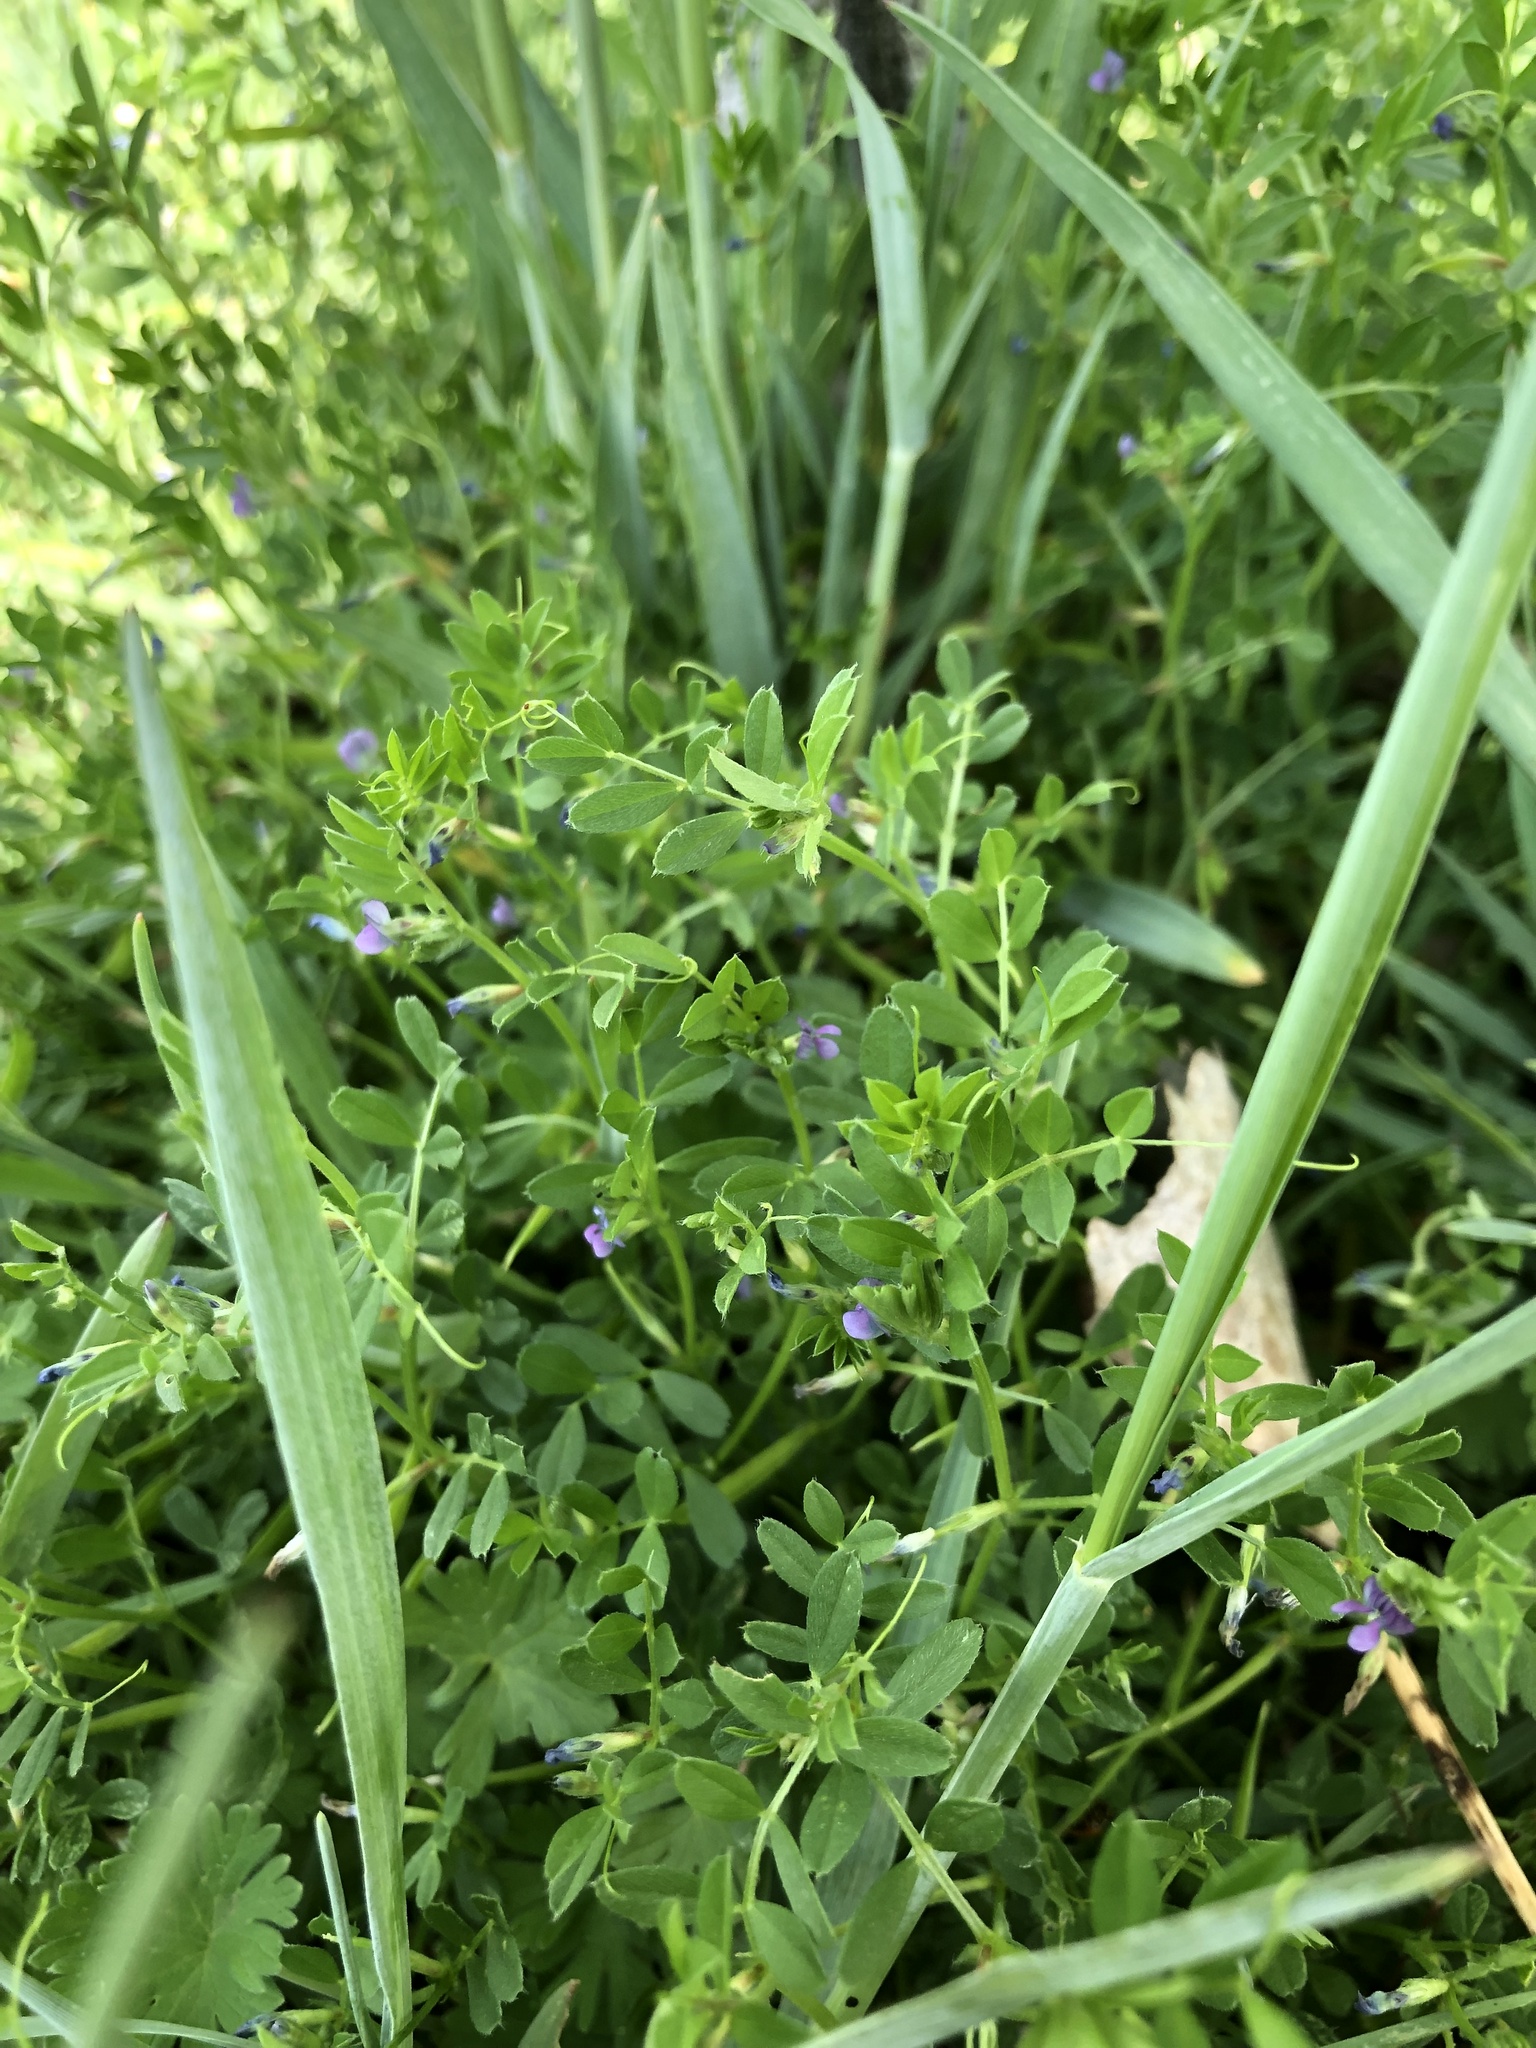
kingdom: Plantae
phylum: Tracheophyta
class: Magnoliopsida
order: Fabales
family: Fabaceae
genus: Vicia
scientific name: Vicia lathyroides
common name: Spring vetch
